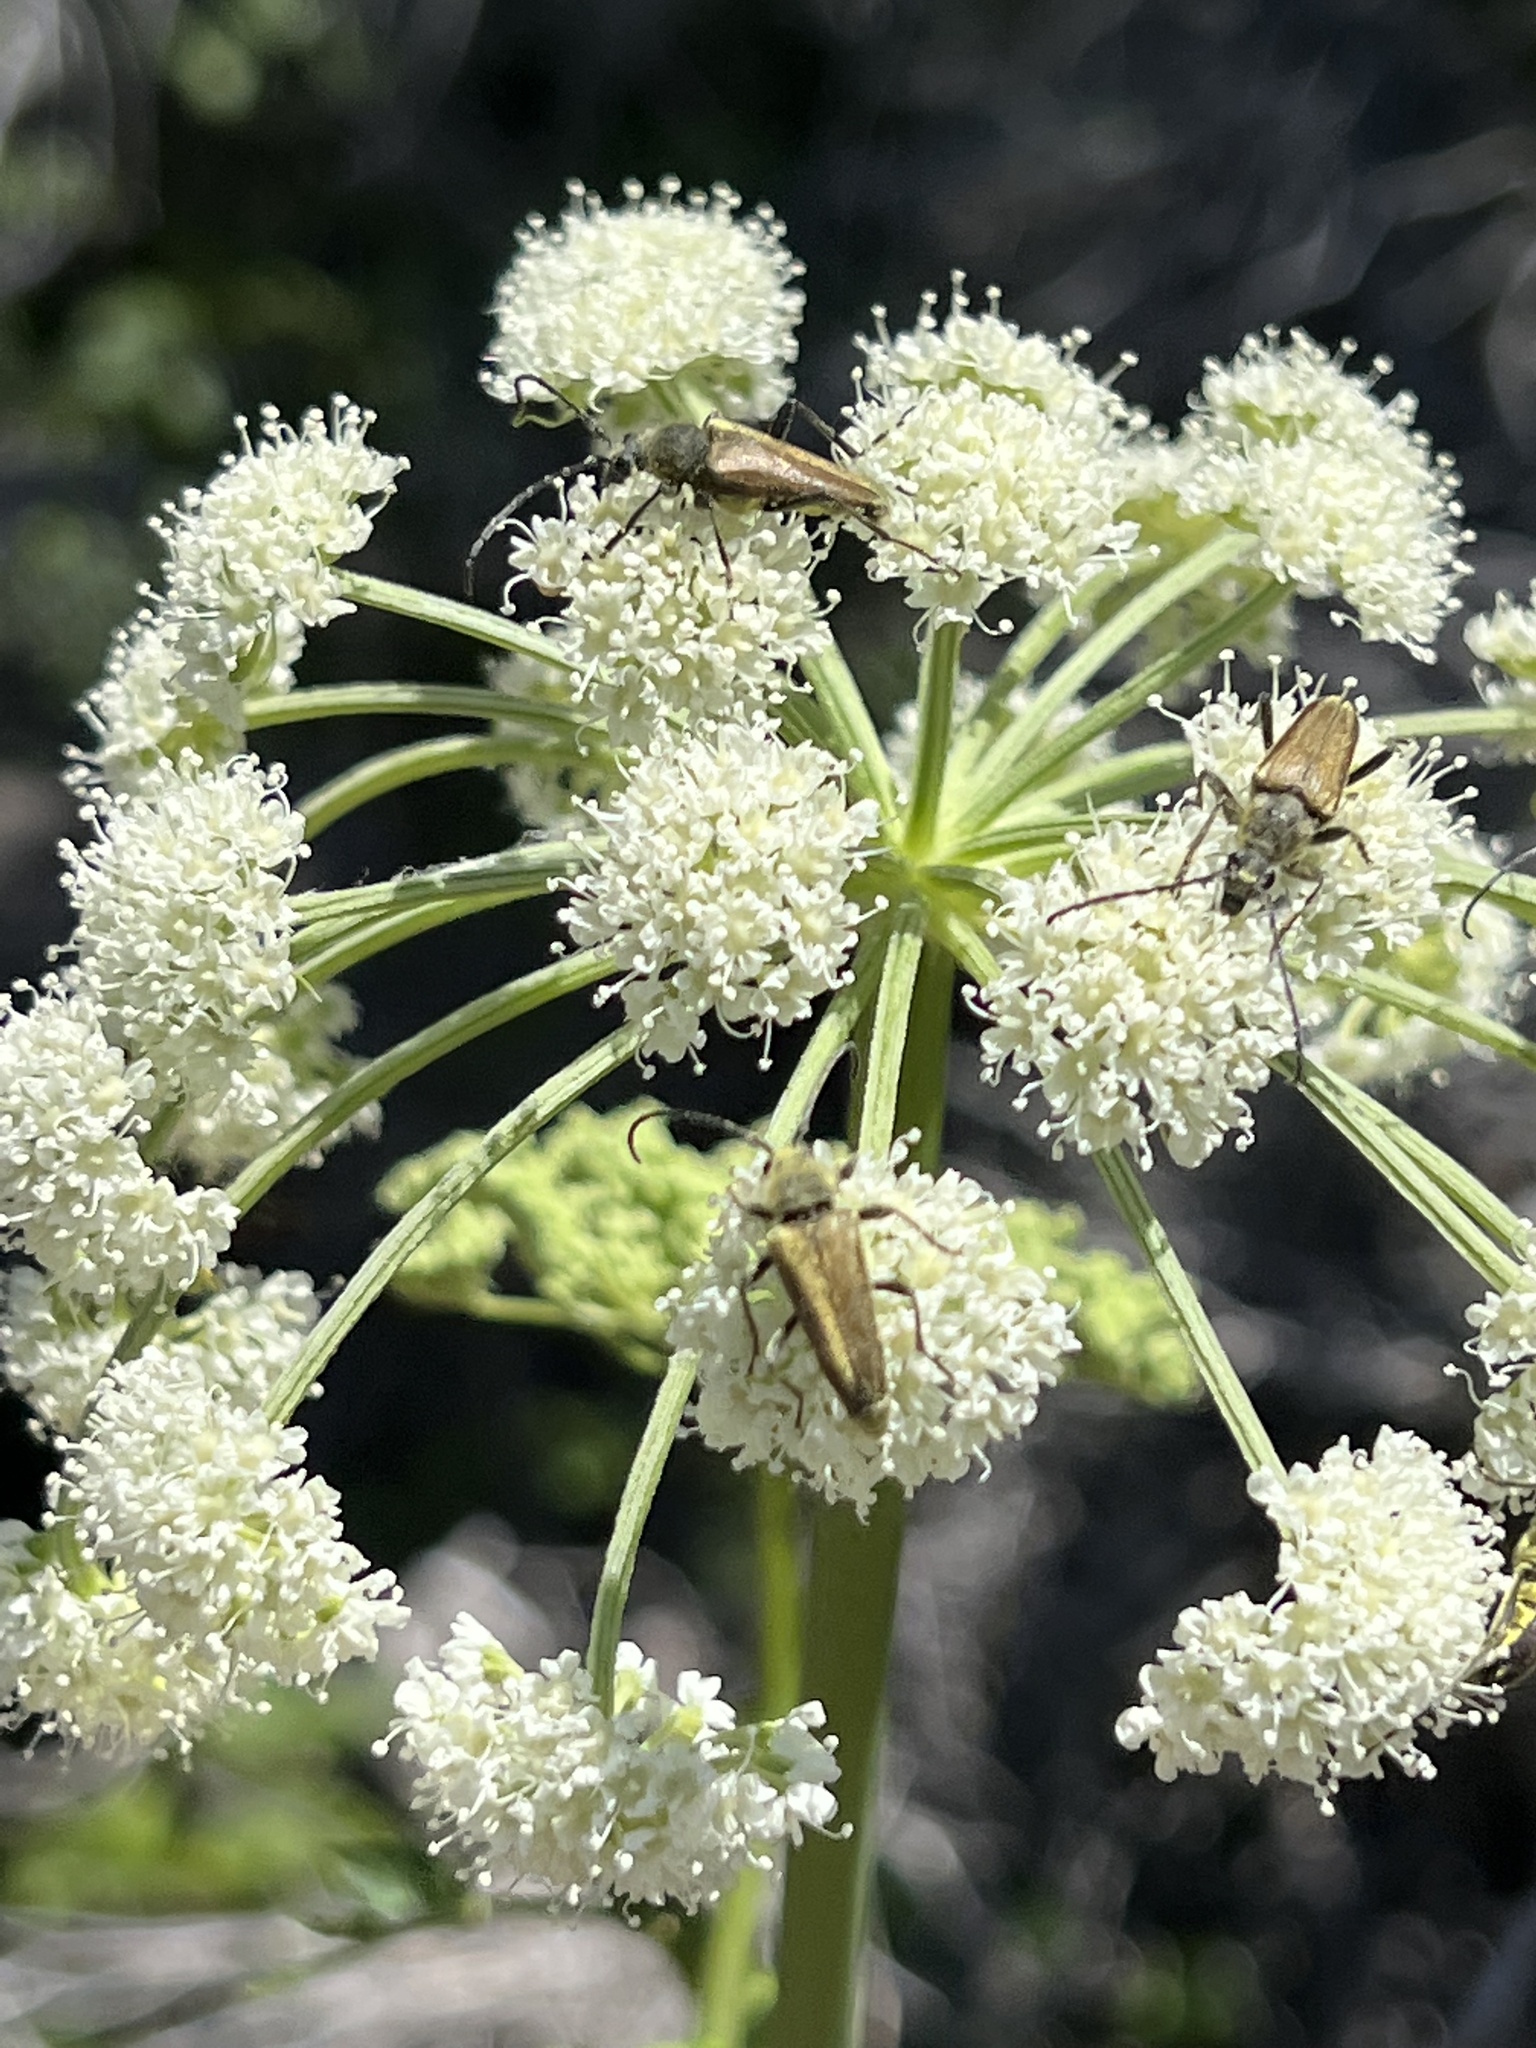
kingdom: Animalia
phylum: Arthropoda
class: Insecta
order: Coleoptera
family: Cerambycidae
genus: Cosmosalia
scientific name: Cosmosalia chrysocoma
